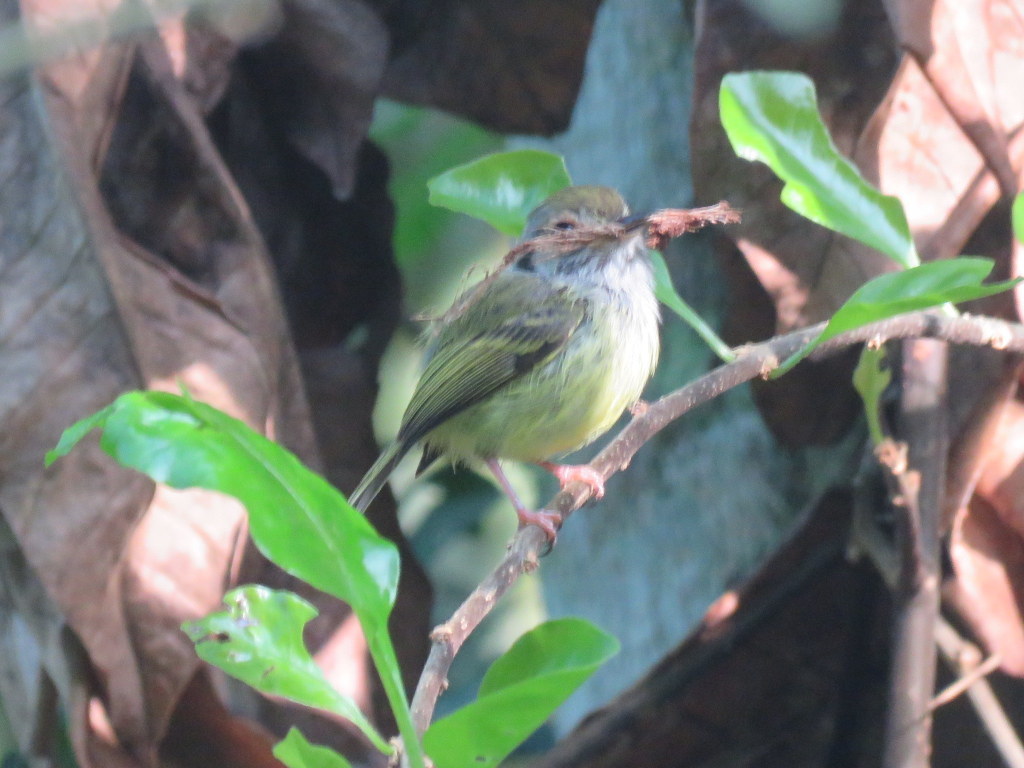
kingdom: Animalia
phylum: Chordata
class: Aves
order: Passeriformes
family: Tyrannidae
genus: Myiornis
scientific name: Myiornis auricularis
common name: Eared pygmy tyrant
